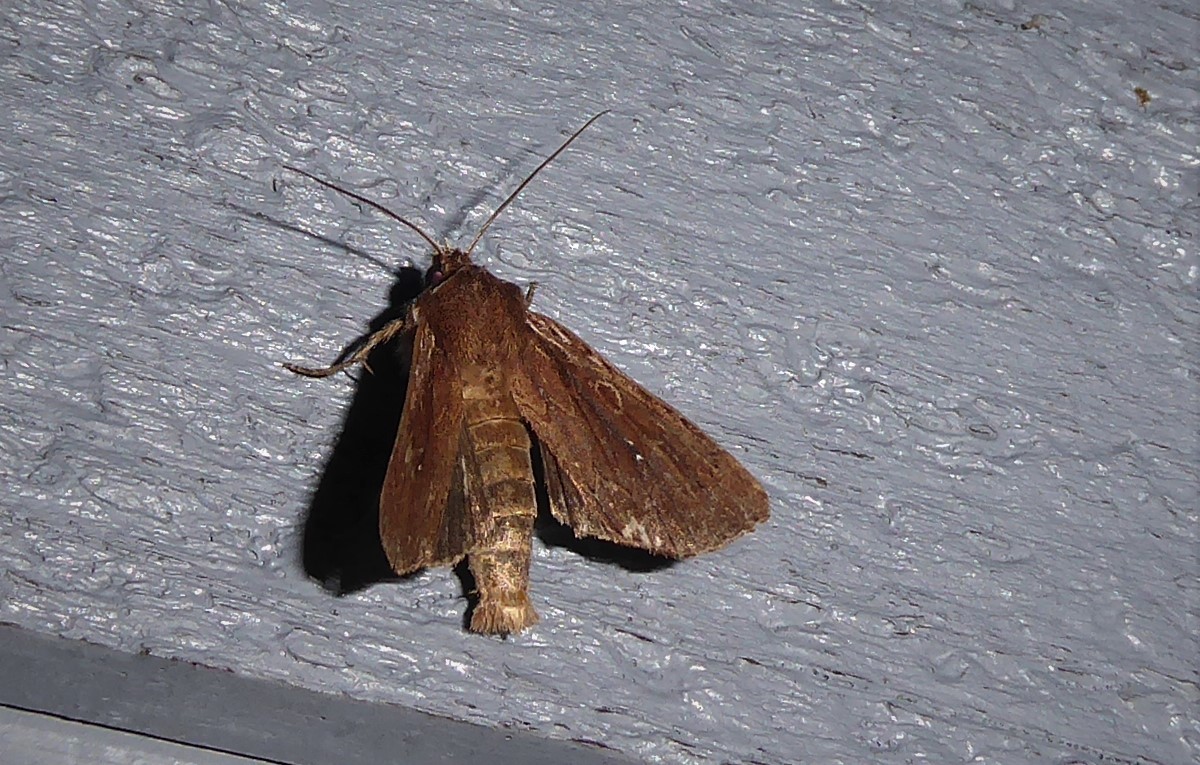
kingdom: Animalia
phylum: Arthropoda
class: Insecta
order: Lepidoptera
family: Noctuidae
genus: Ichneutica
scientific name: Ichneutica
